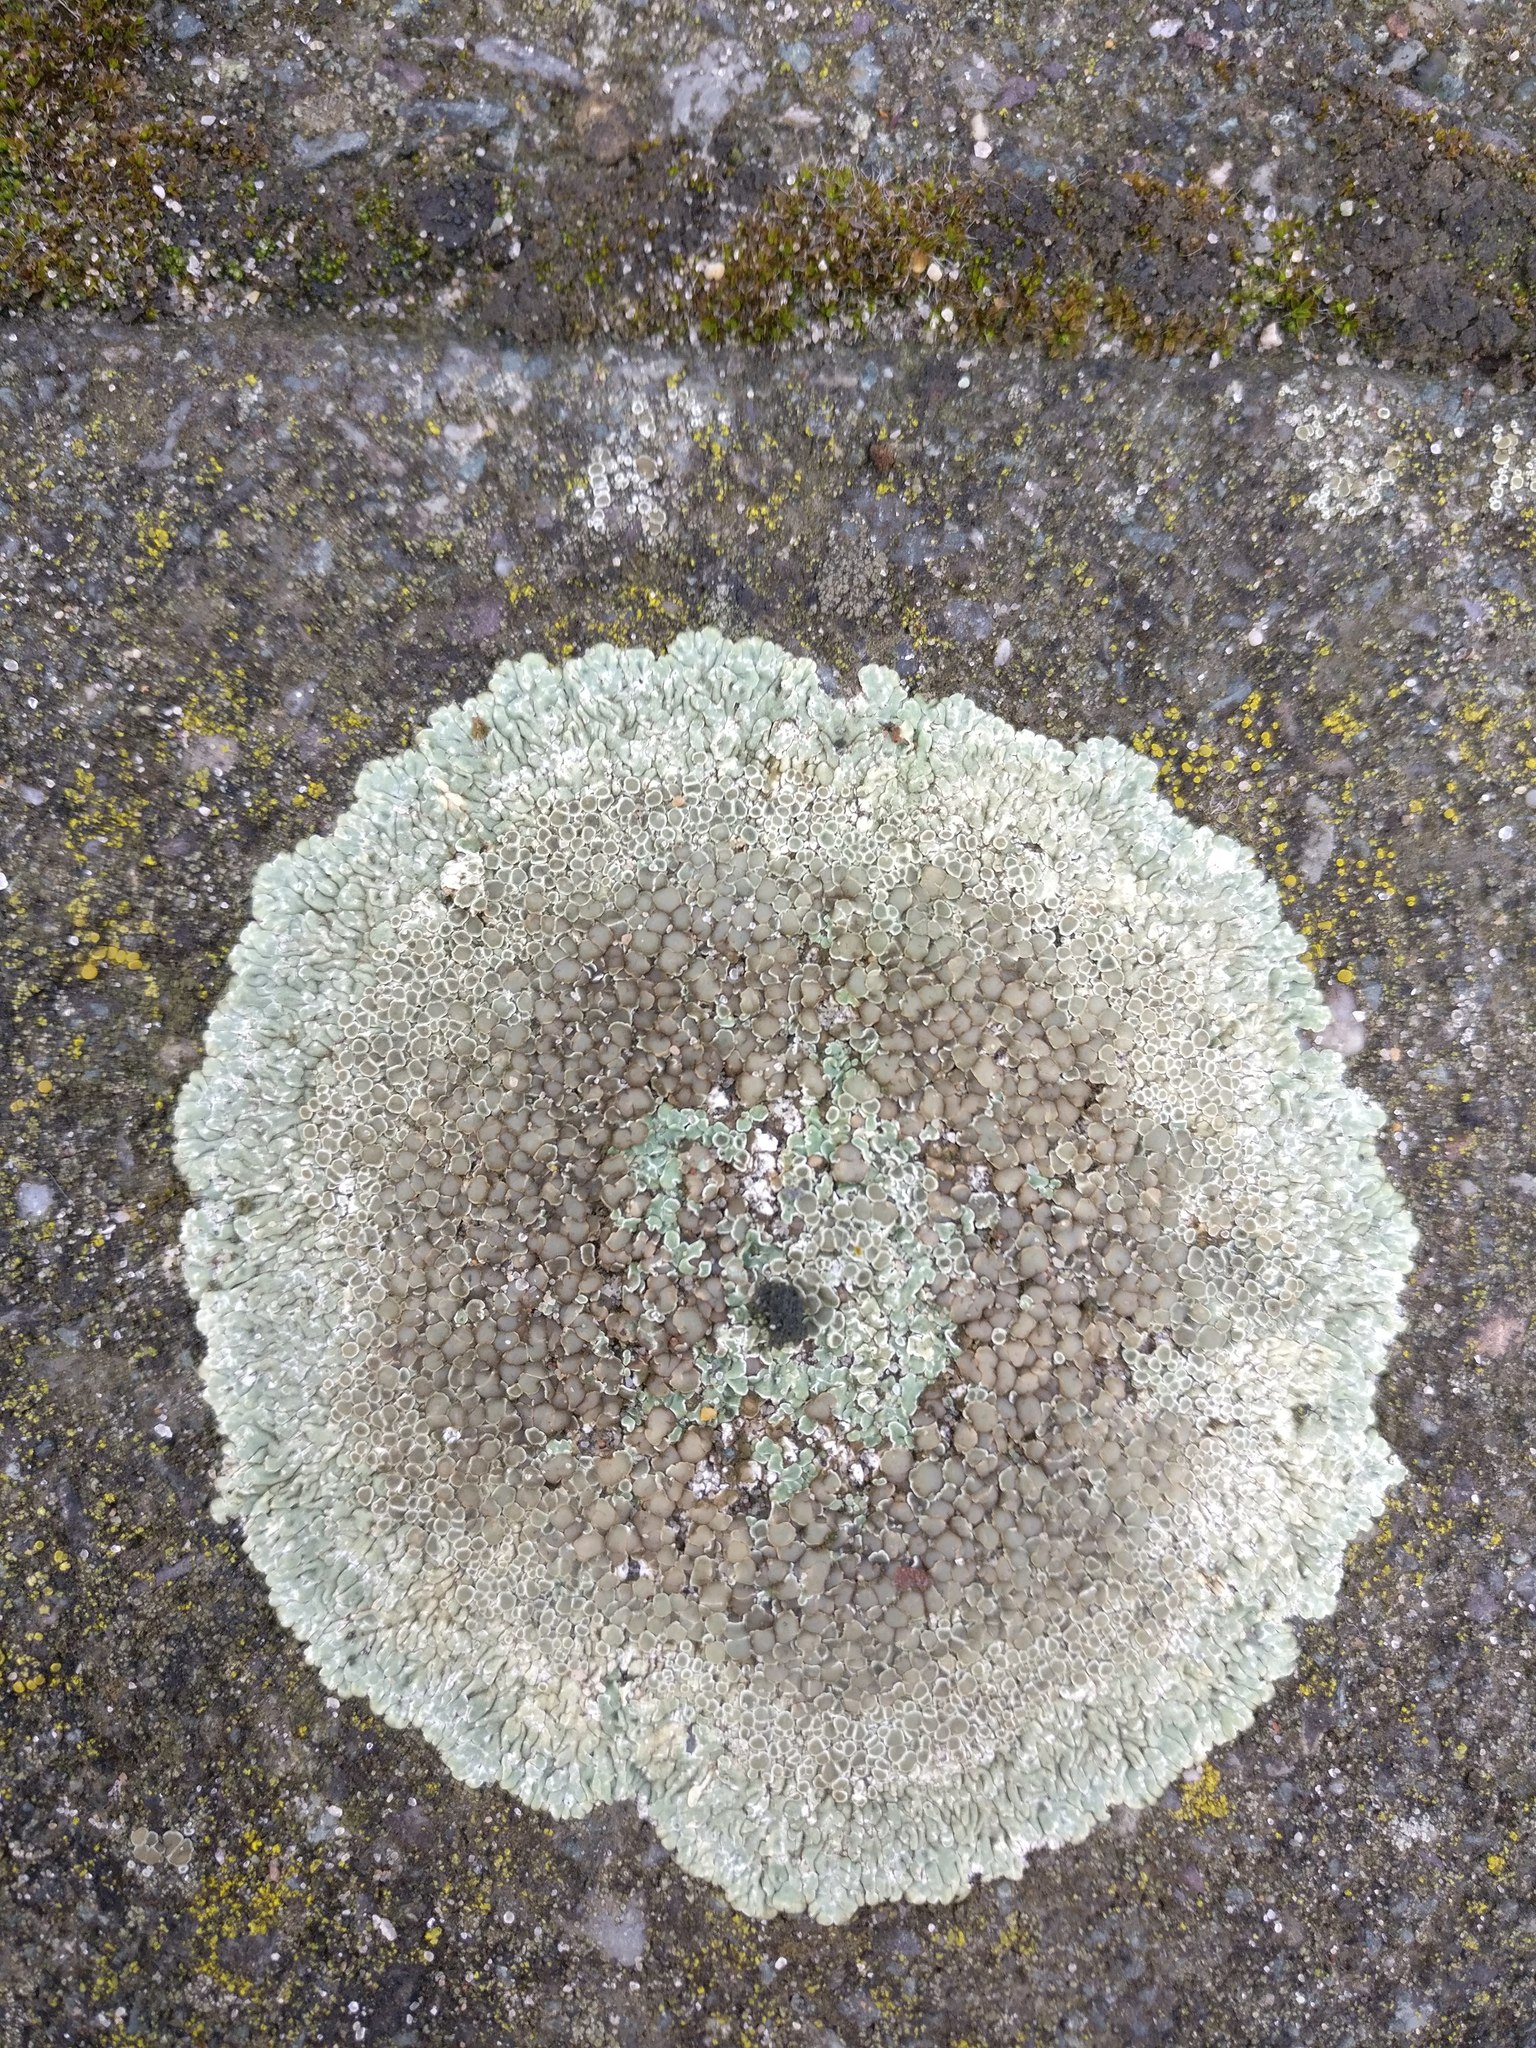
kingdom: Fungi
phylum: Ascomycota
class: Lecanoromycetes
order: Lecanorales
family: Lecanoraceae
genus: Protoparmeliopsis
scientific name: Protoparmeliopsis muralis
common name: Stonewall rim lichen
